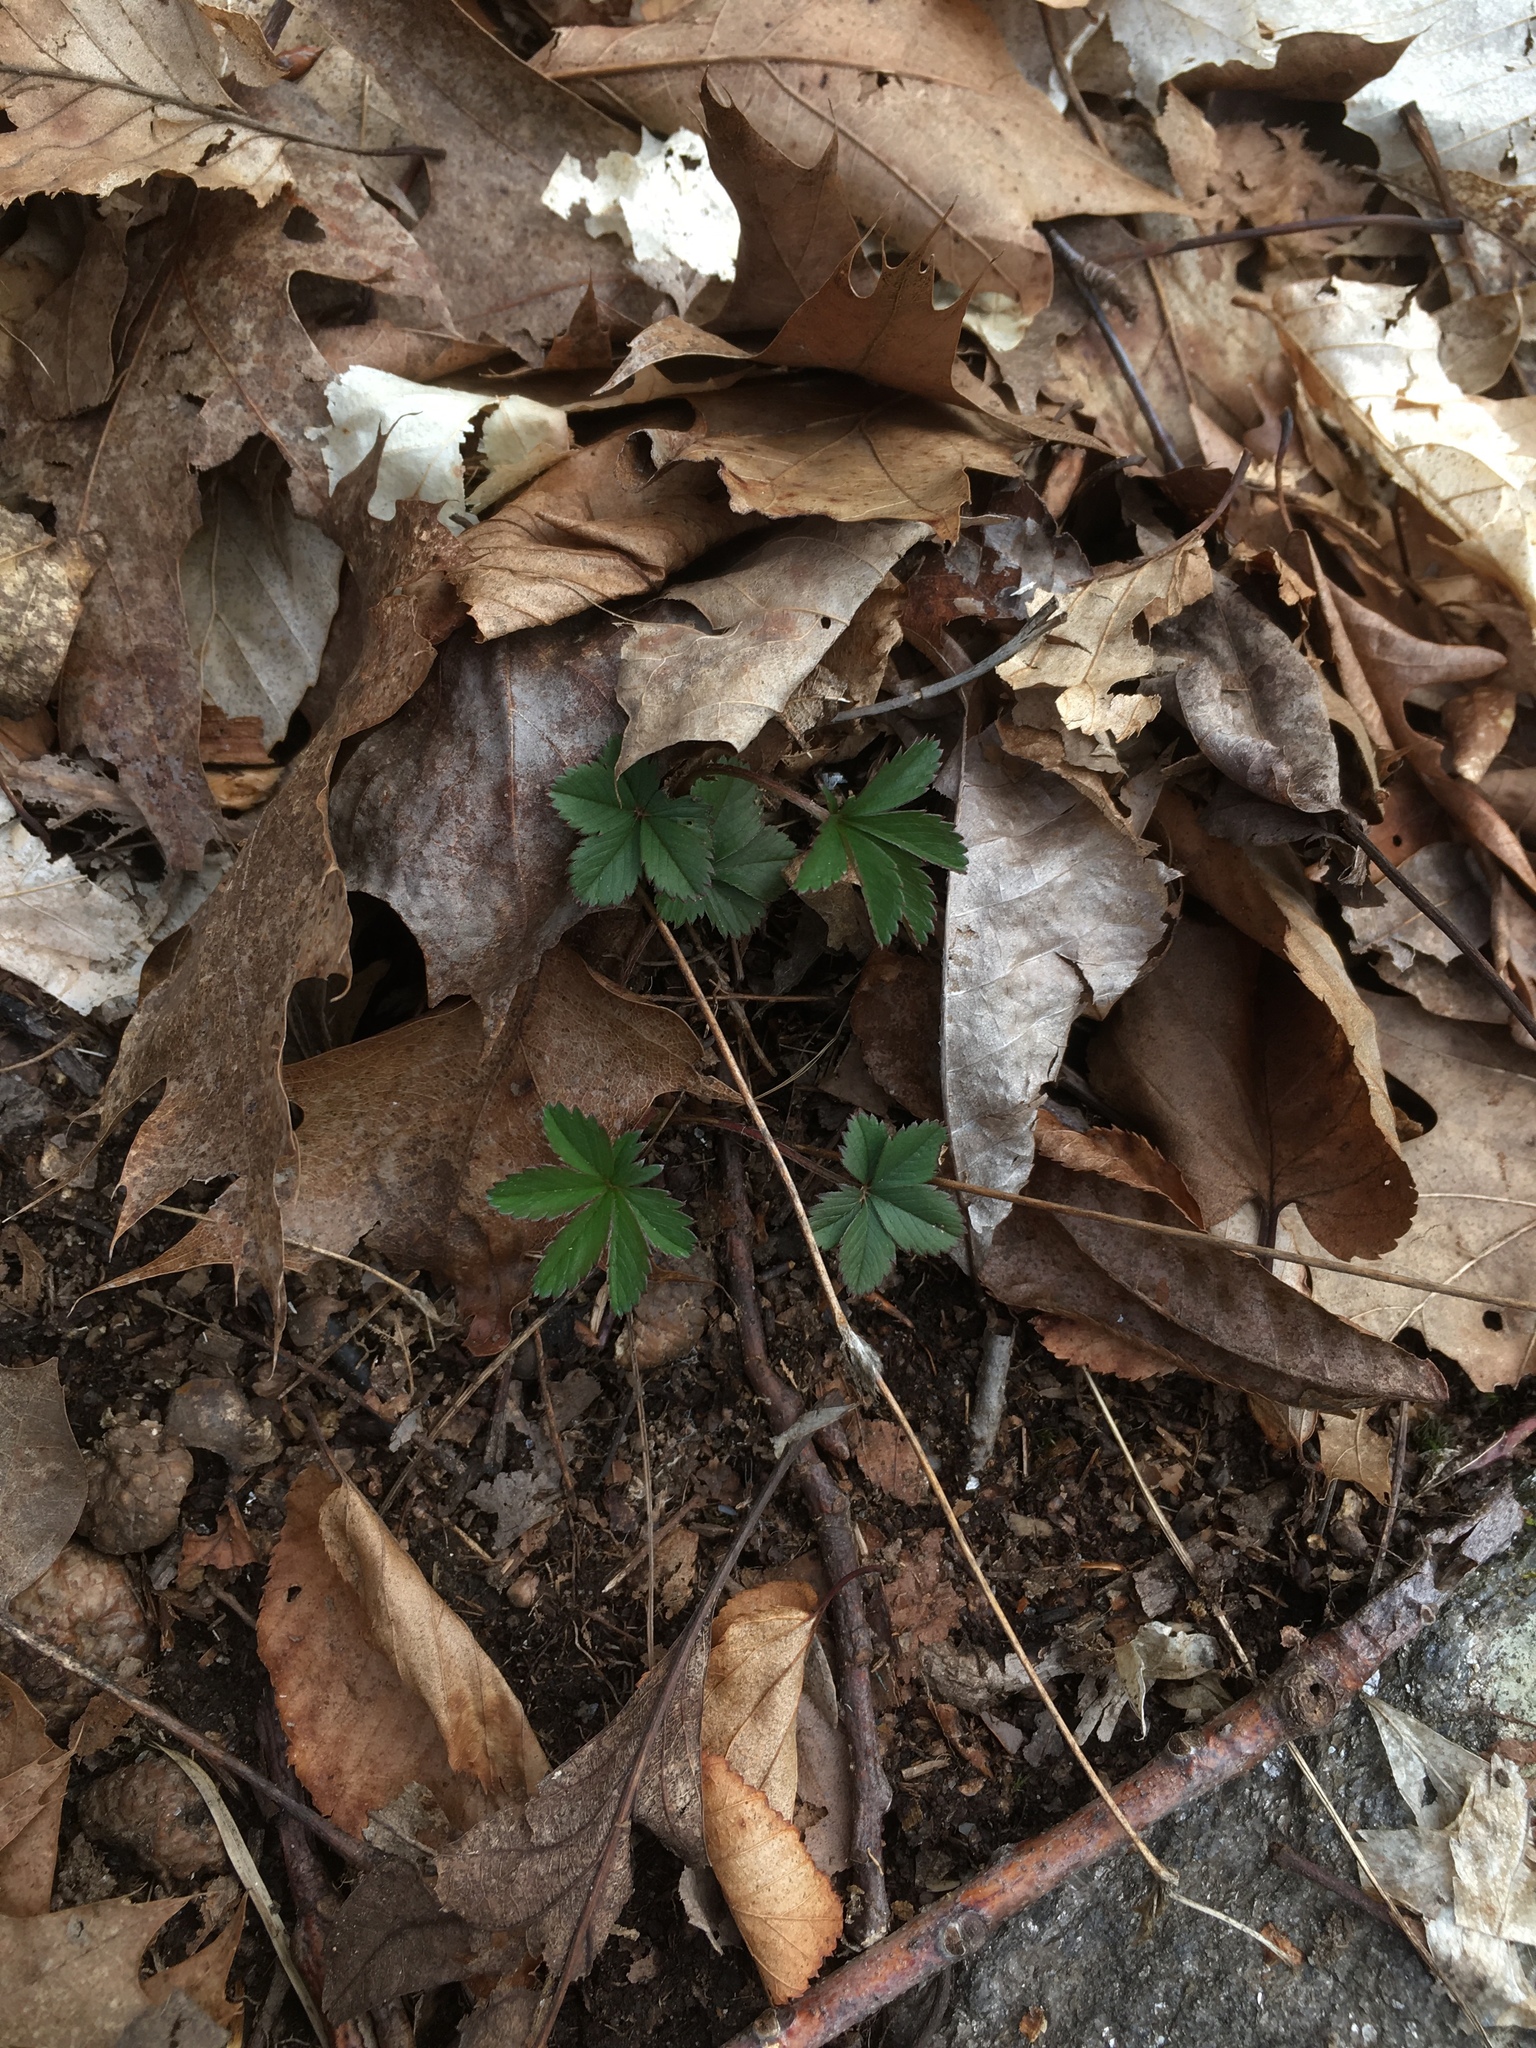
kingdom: Plantae
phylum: Tracheophyta
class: Magnoliopsida
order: Rosales
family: Rosaceae
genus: Potentilla
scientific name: Potentilla canadensis
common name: Canada cinquefoil
